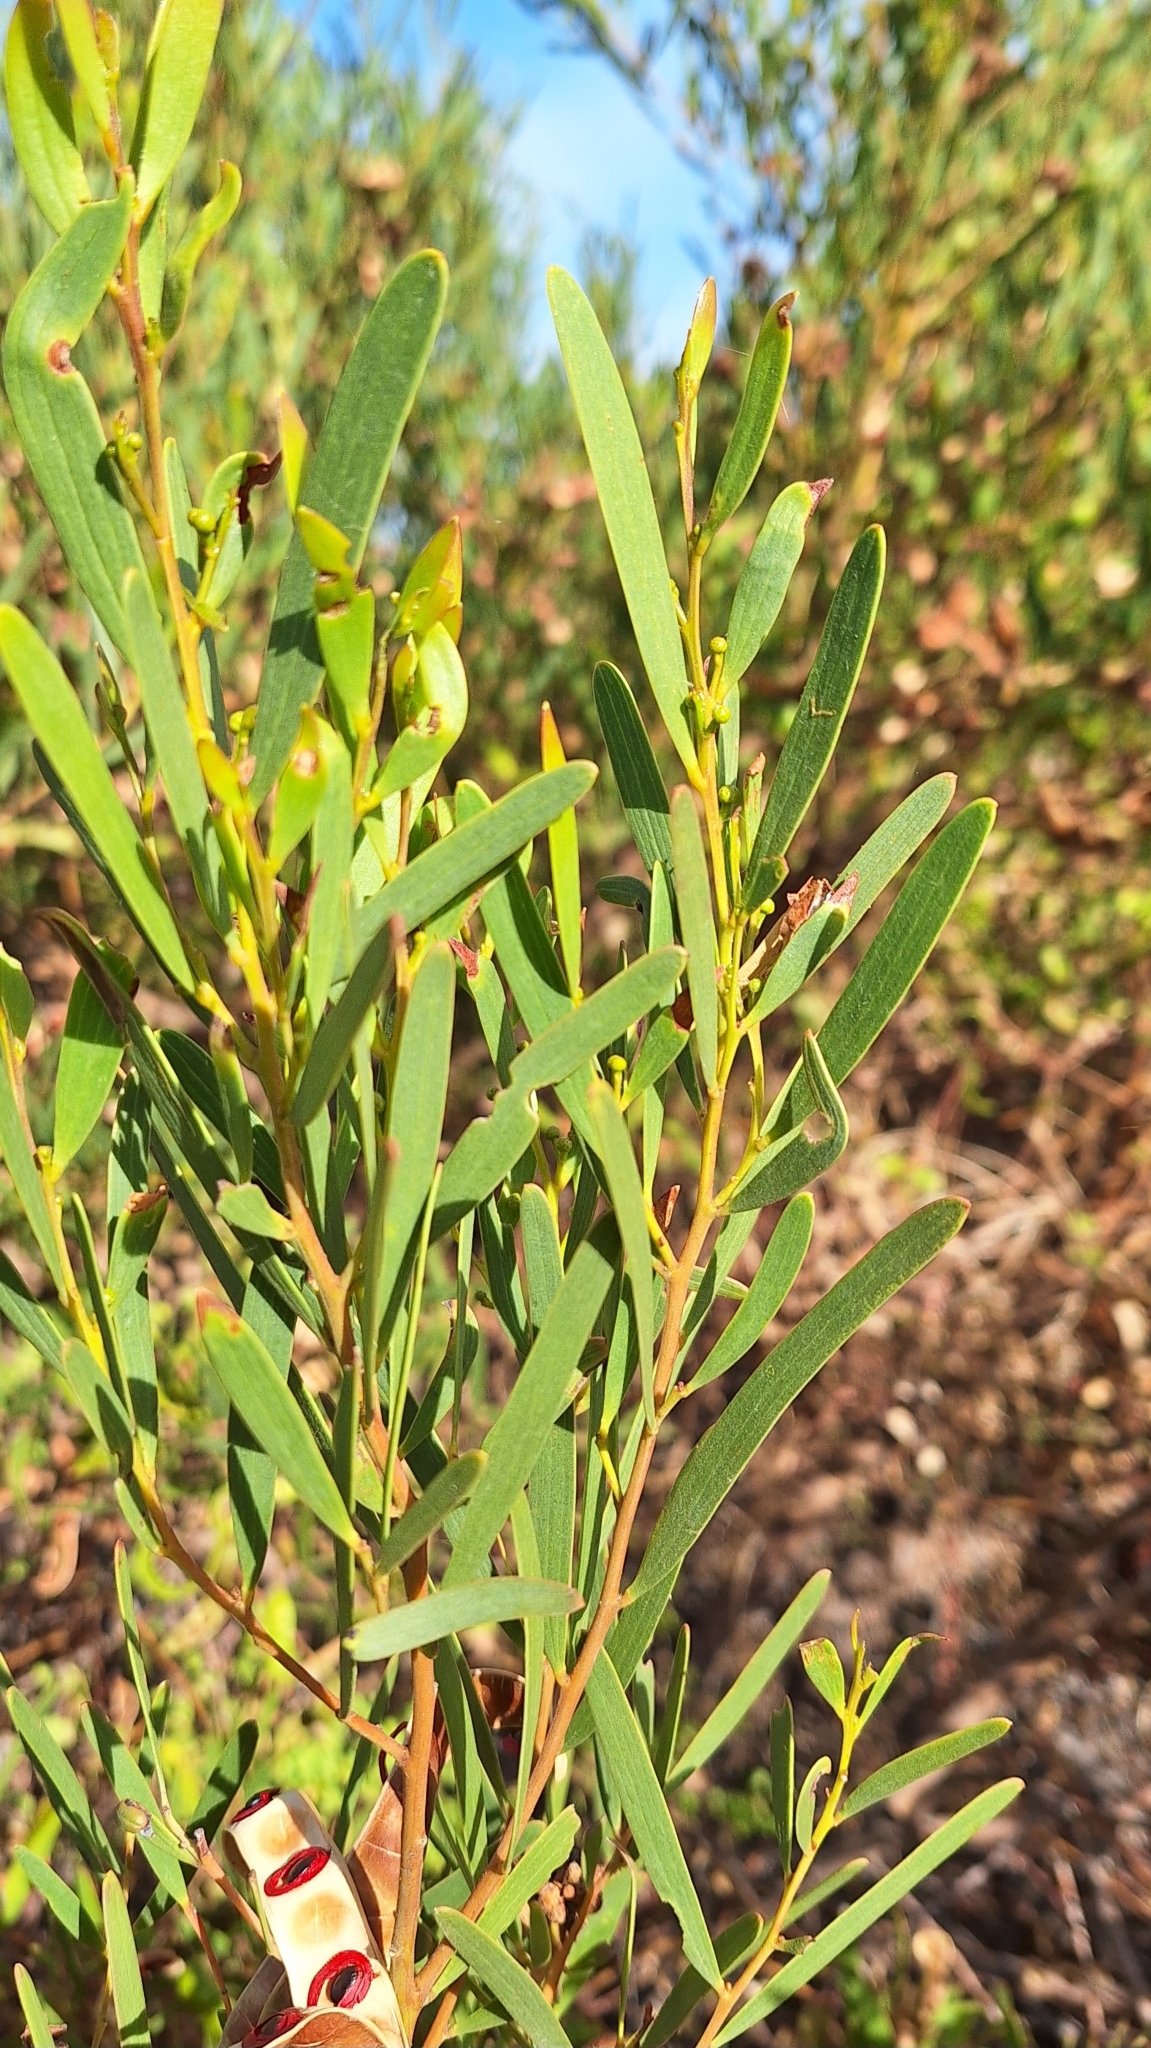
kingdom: Plantae
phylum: Tracheophyta
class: Magnoliopsida
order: Fabales
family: Fabaceae
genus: Acacia
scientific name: Acacia cyclops
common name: Coastal wattle
